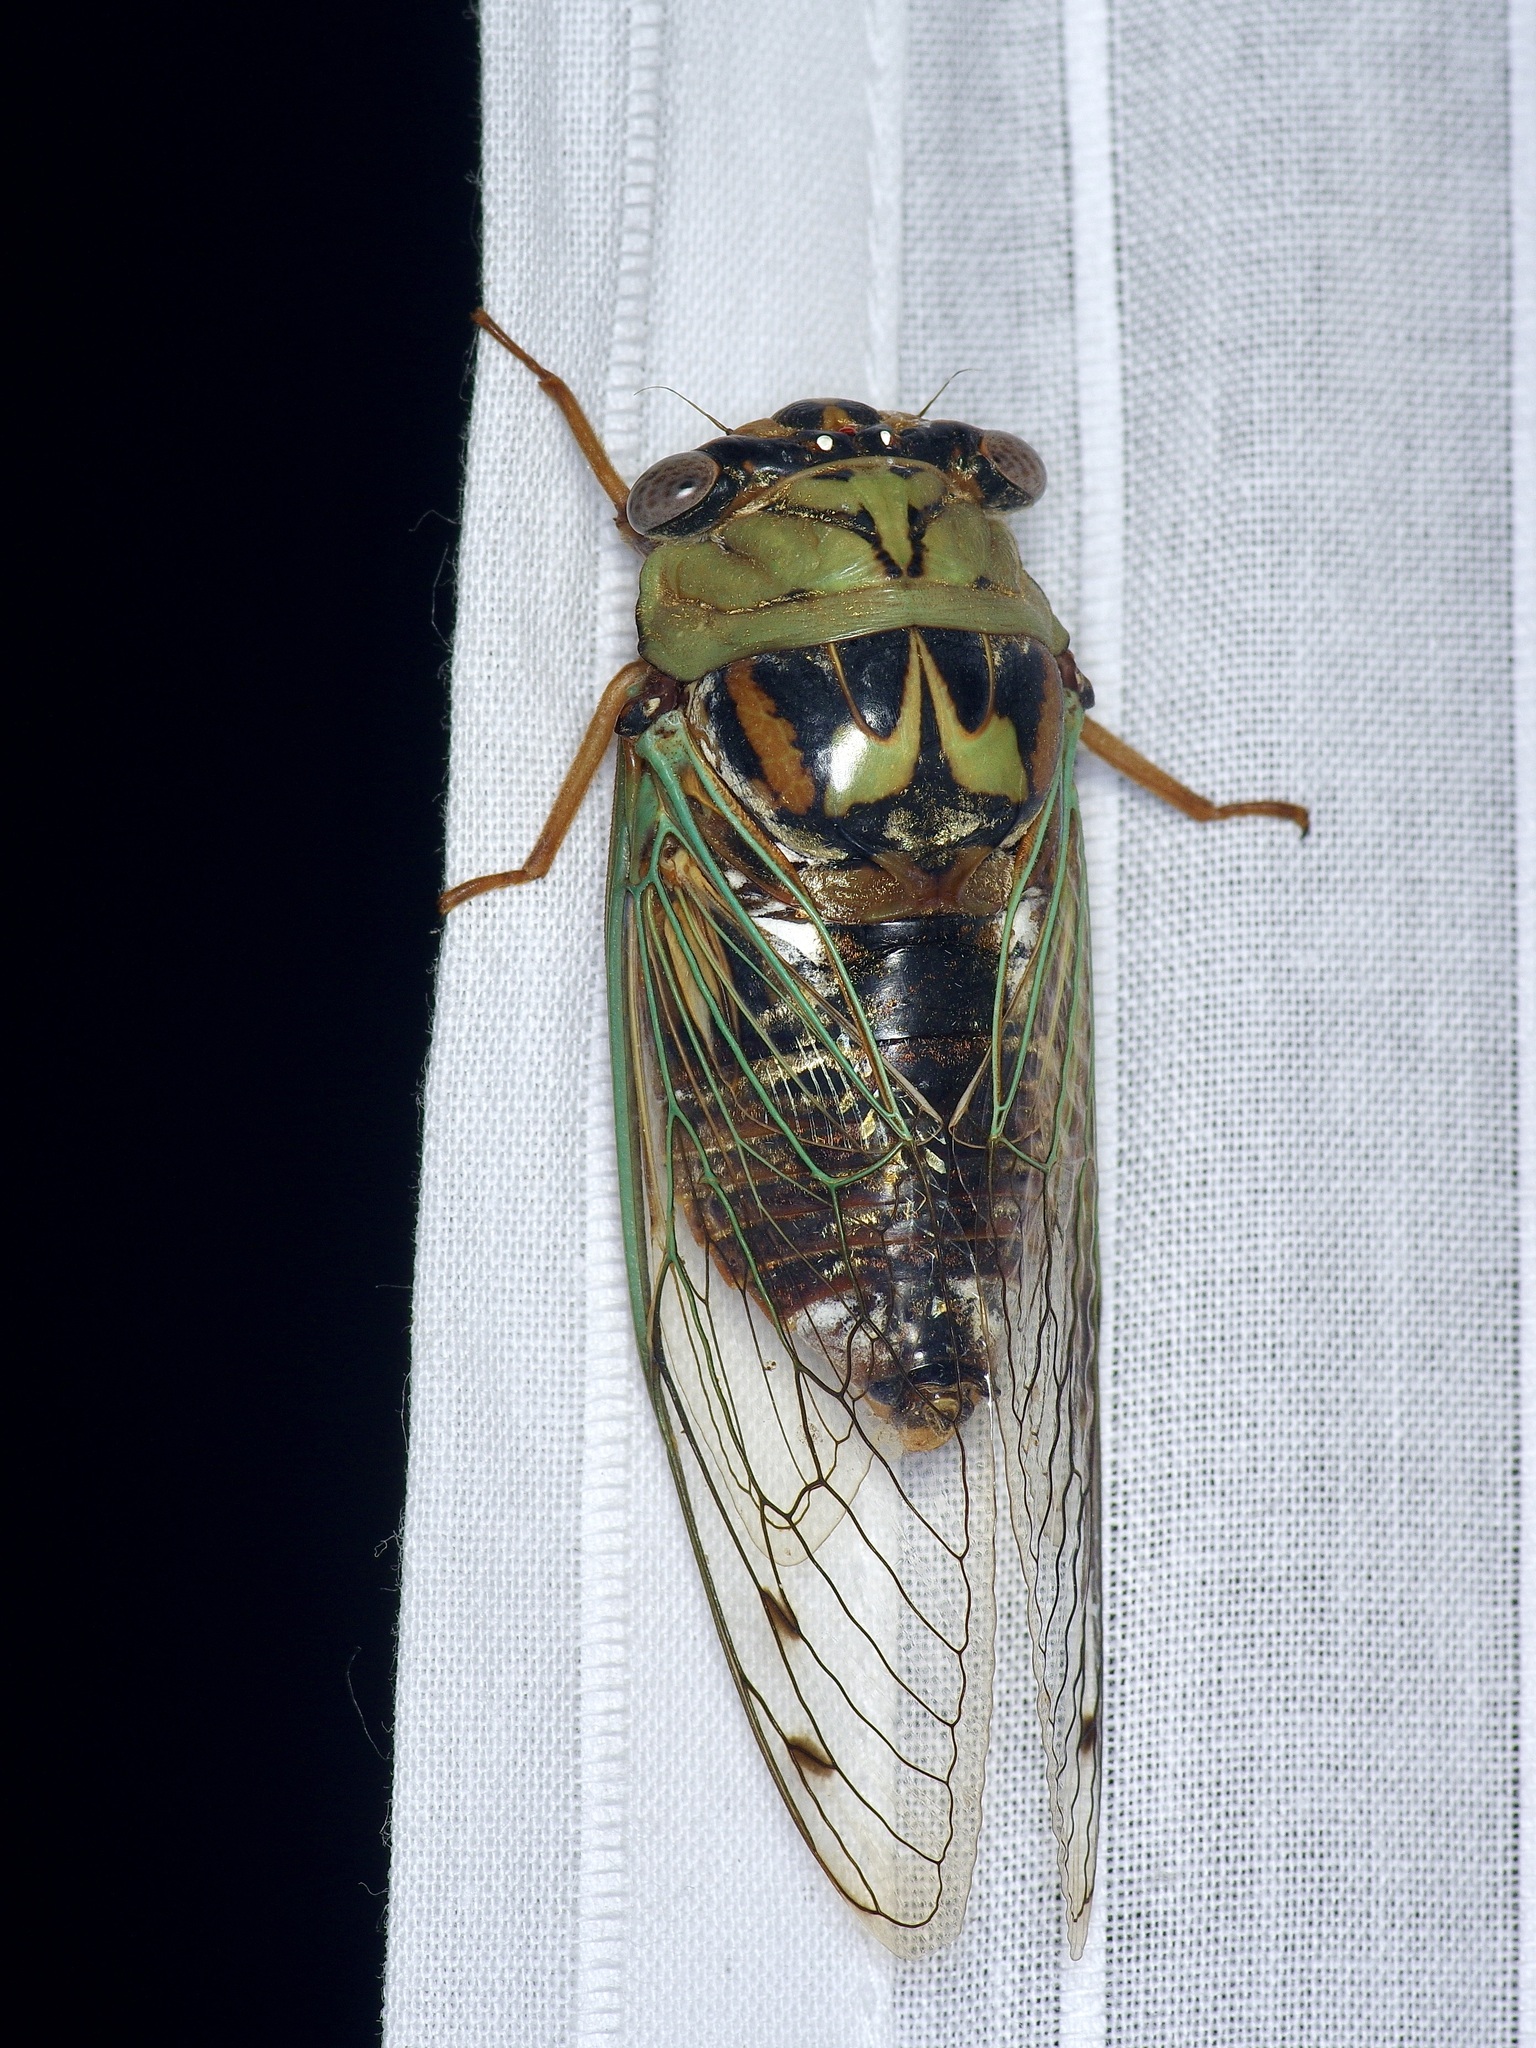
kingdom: Animalia
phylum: Arthropoda
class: Insecta
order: Hemiptera
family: Cicadidae
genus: Megatibicen
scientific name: Megatibicen resh
